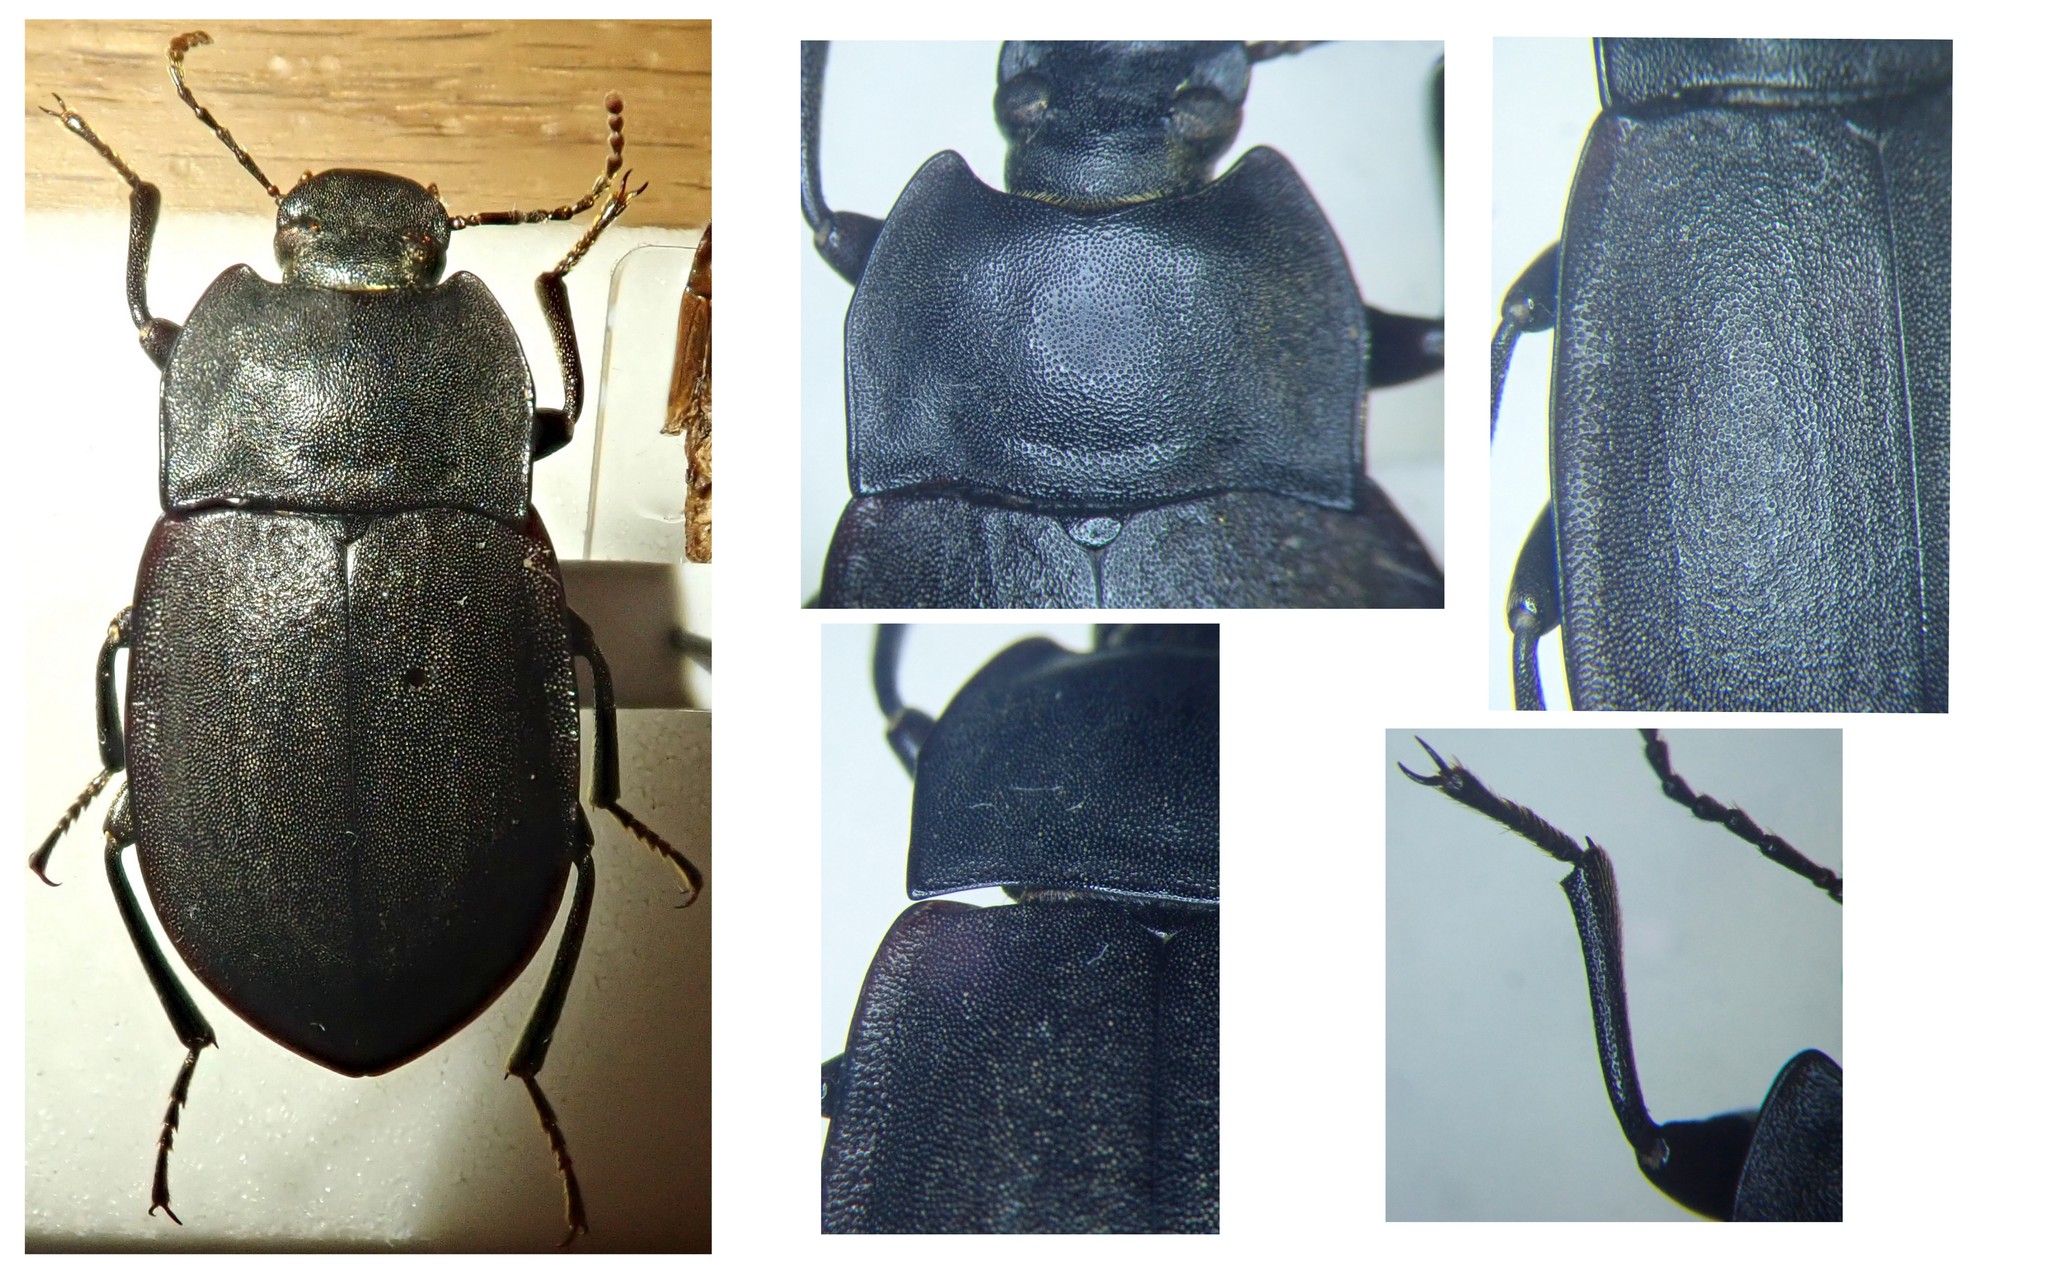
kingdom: Animalia
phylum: Arthropoda
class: Insecta
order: Coleoptera
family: Tenebrionidae
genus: Mimopeus
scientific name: Mimopeus
